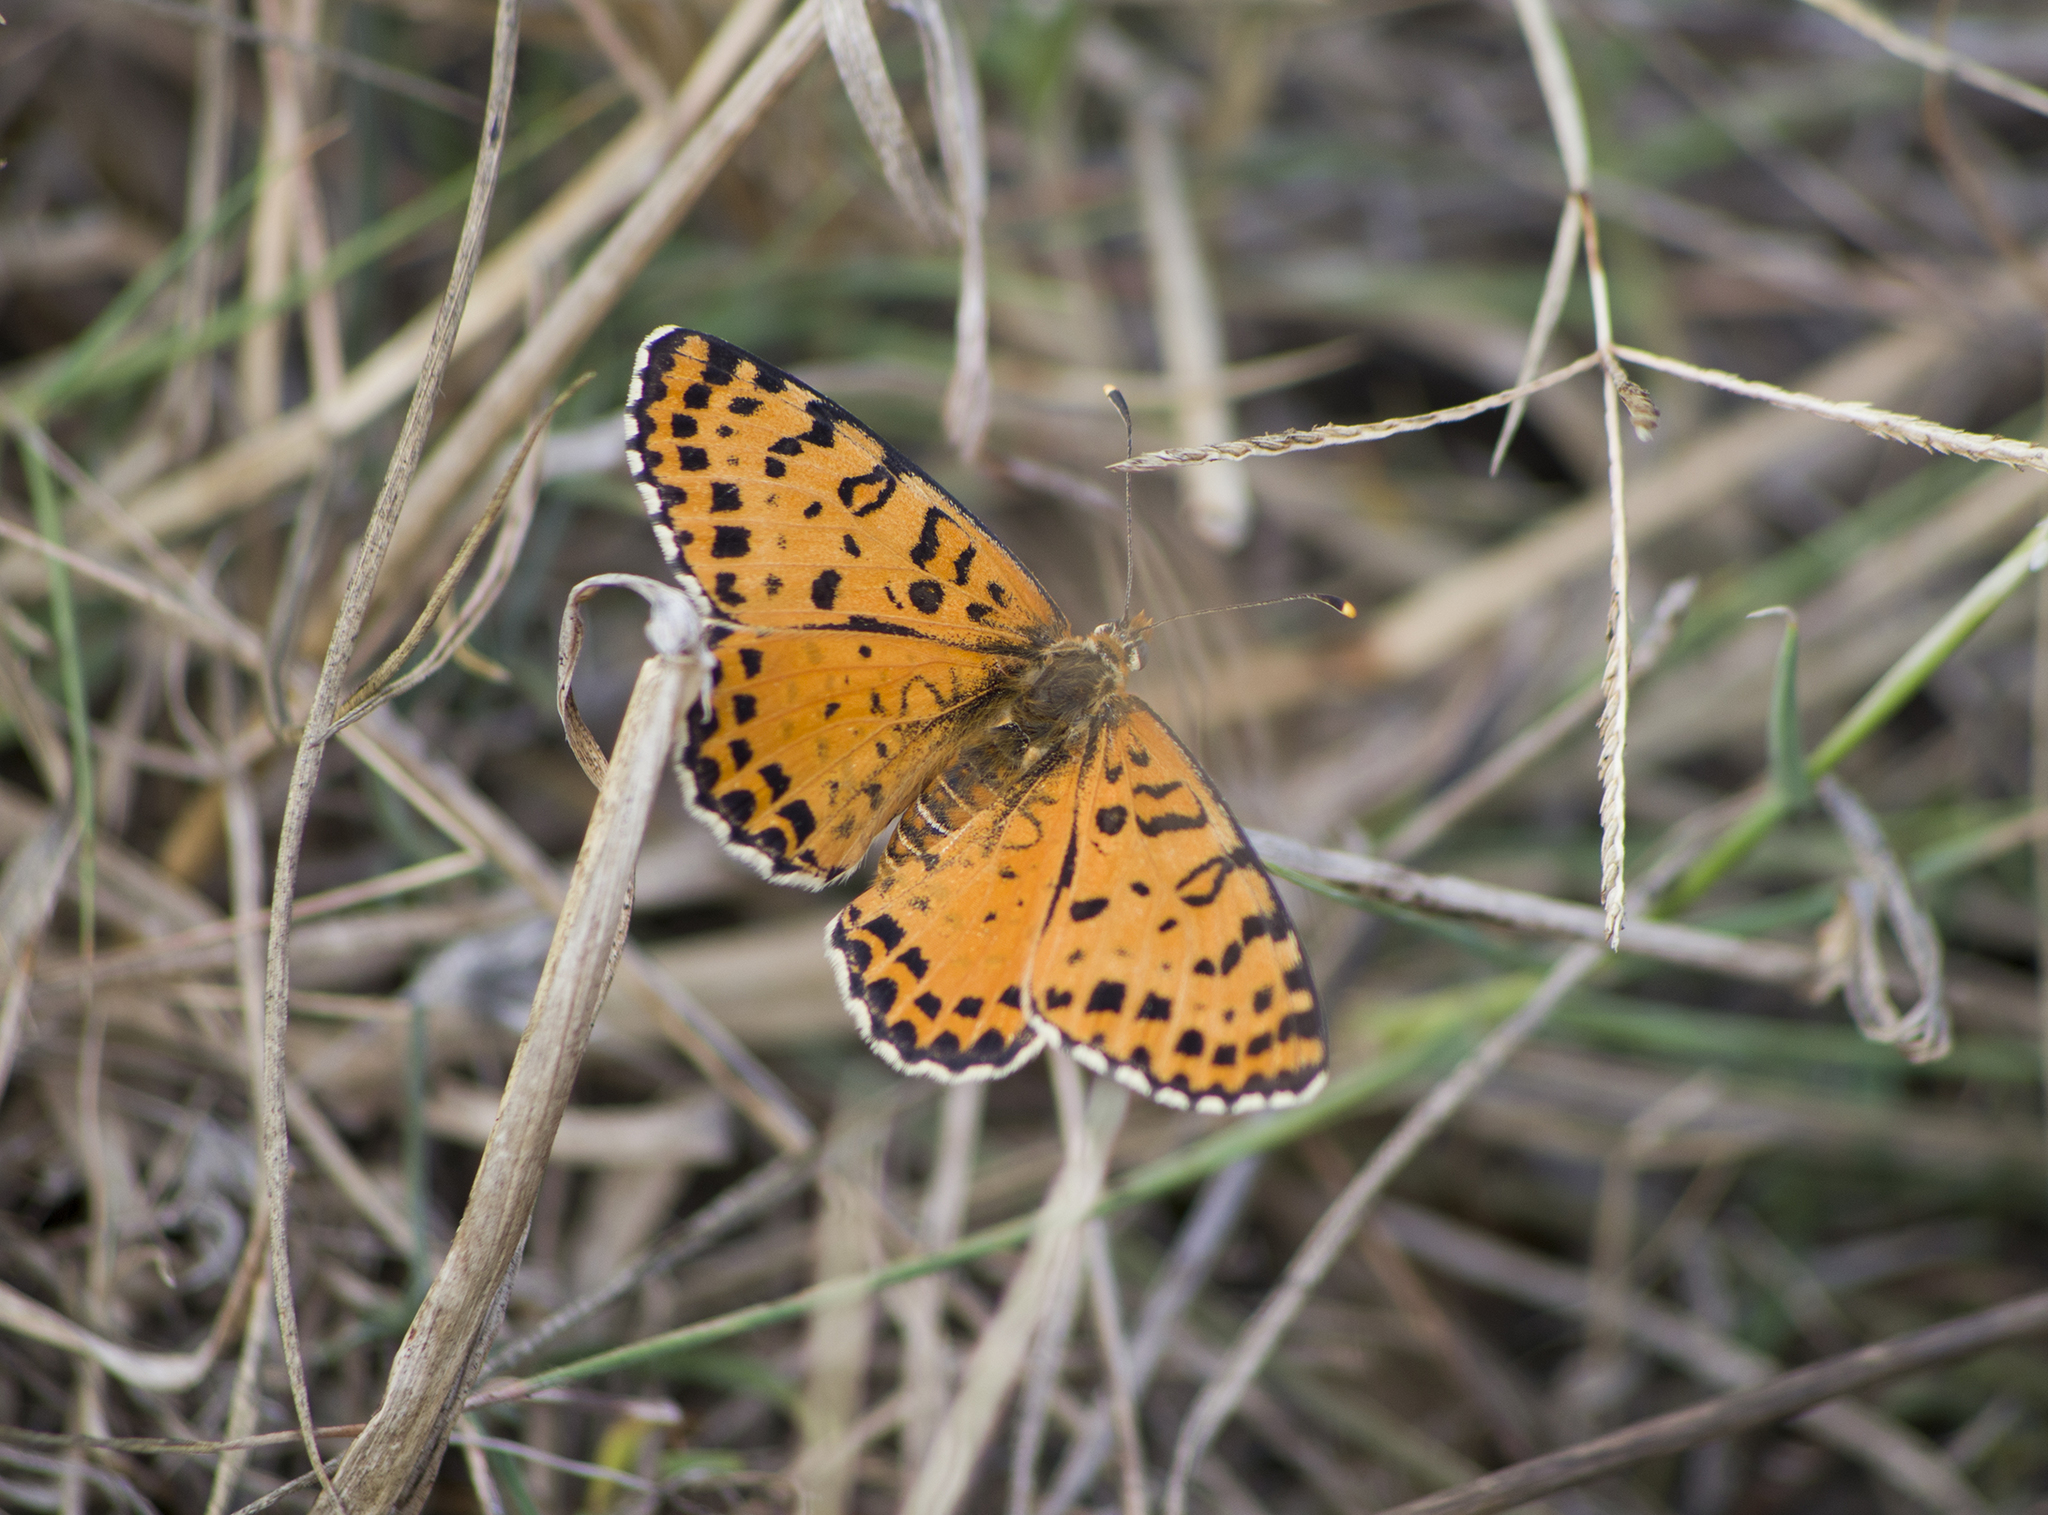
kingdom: Animalia
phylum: Arthropoda
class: Insecta
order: Lepidoptera
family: Nymphalidae
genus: Melitaea
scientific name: Melitaea didyma
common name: Spotted fritillary
